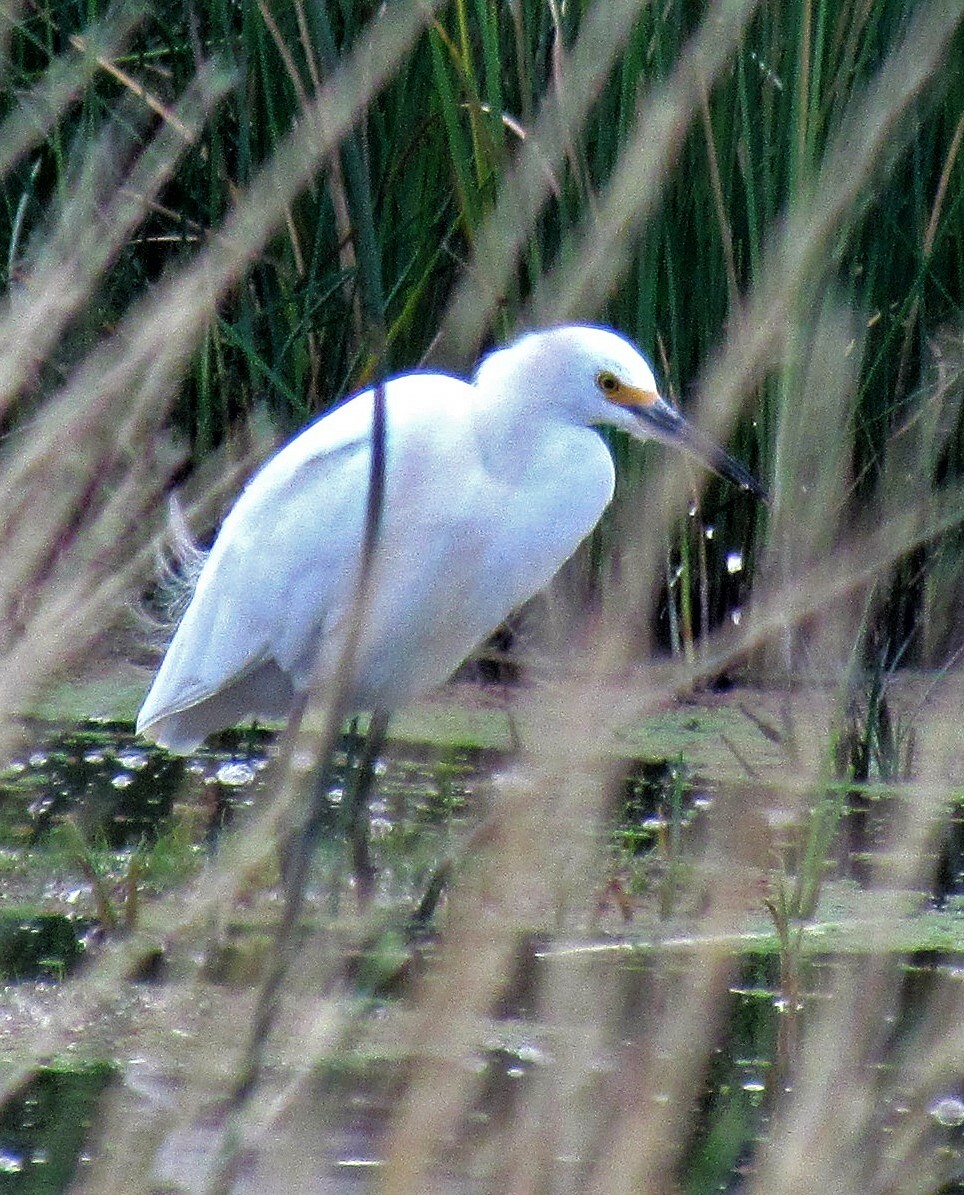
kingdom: Animalia
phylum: Chordata
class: Aves
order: Pelecaniformes
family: Ardeidae
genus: Egretta
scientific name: Egretta thula
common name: Snowy egret
